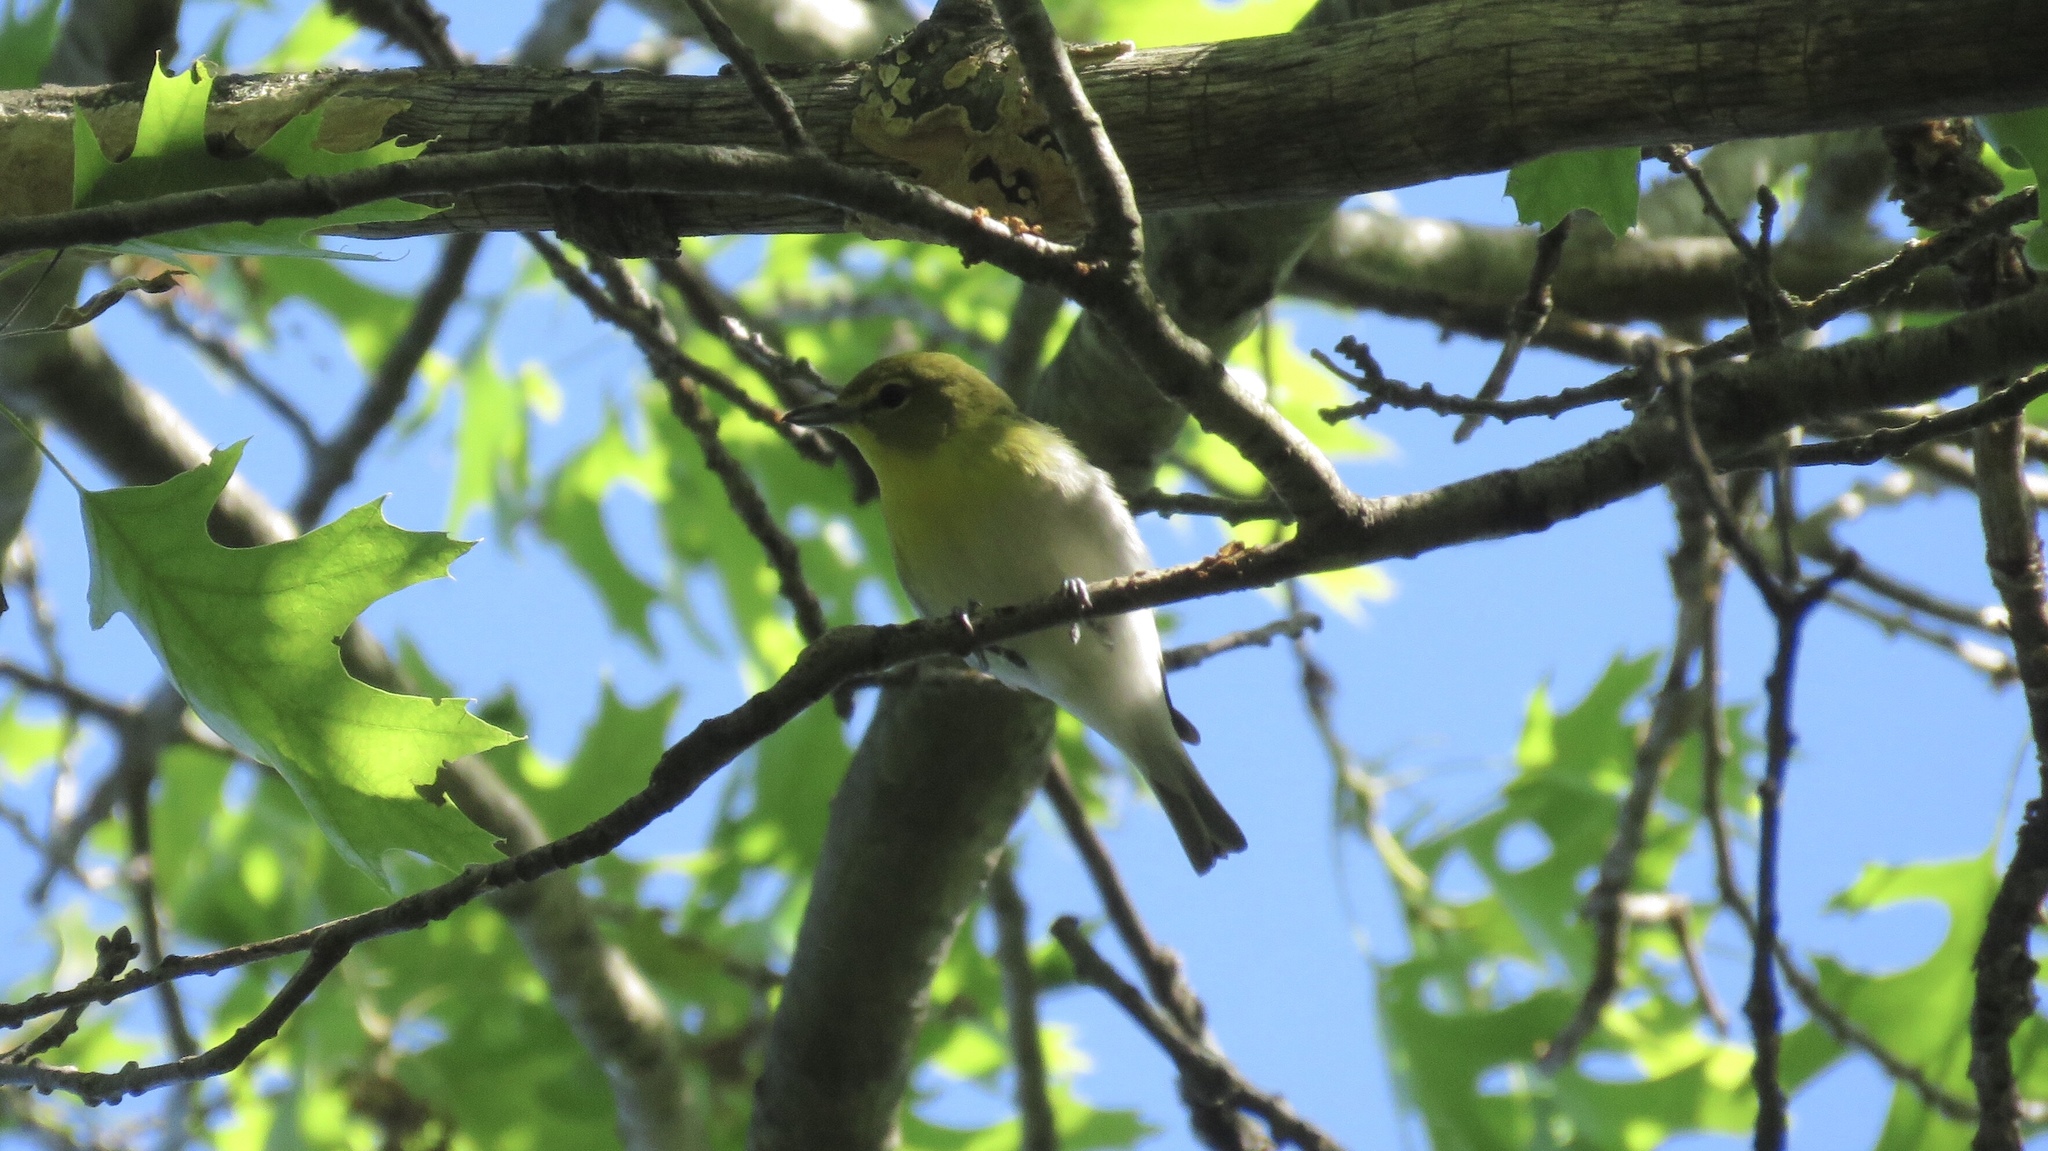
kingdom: Animalia
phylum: Chordata
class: Aves
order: Passeriformes
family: Vireonidae
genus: Vireo
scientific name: Vireo flavifrons
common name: Yellow-throated vireo
